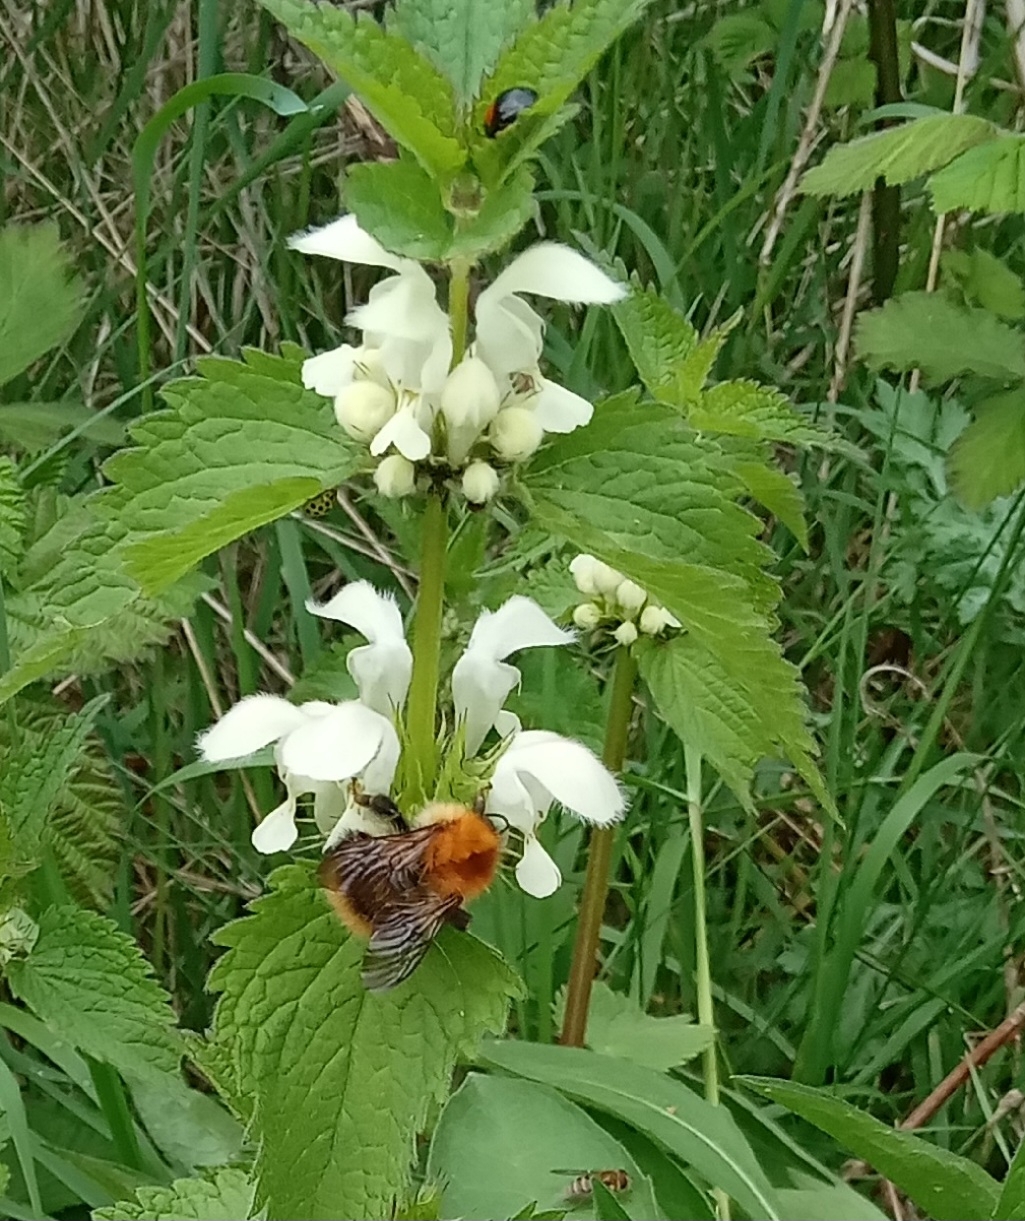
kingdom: Animalia
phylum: Arthropoda
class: Insecta
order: Hymenoptera
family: Apidae
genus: Bombus
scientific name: Bombus pascuorum
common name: Common carder bee
